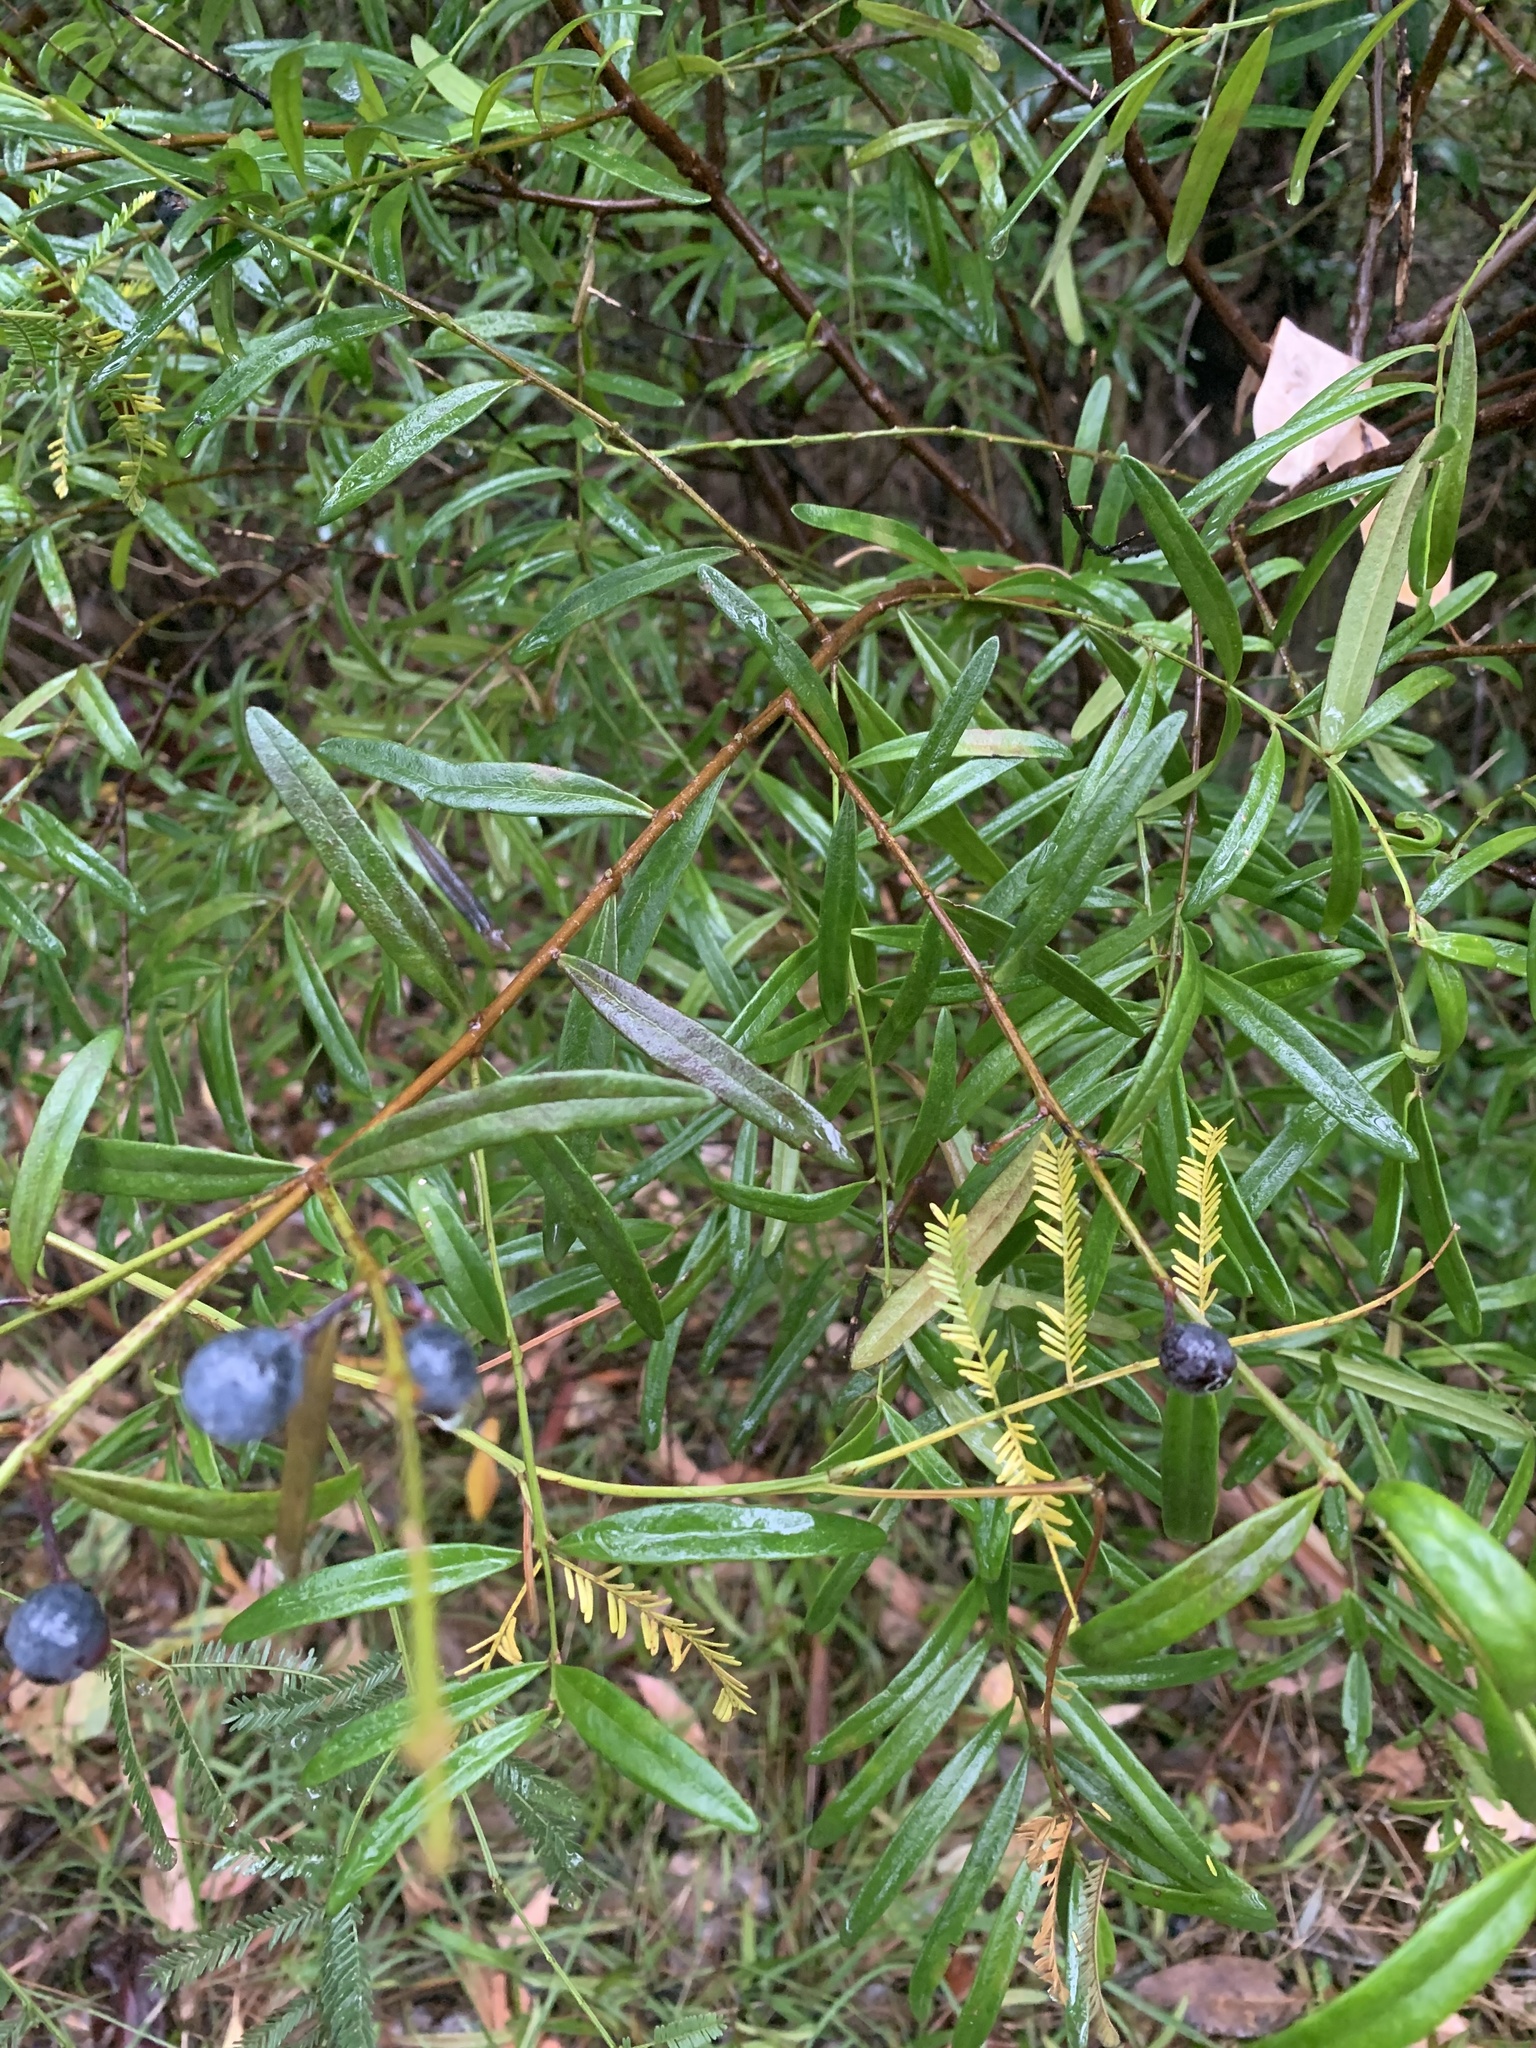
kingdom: Plantae
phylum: Tracheophyta
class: Magnoliopsida
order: Santalales
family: Santalaceae
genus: Santalum
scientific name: Santalum obtusifolium
